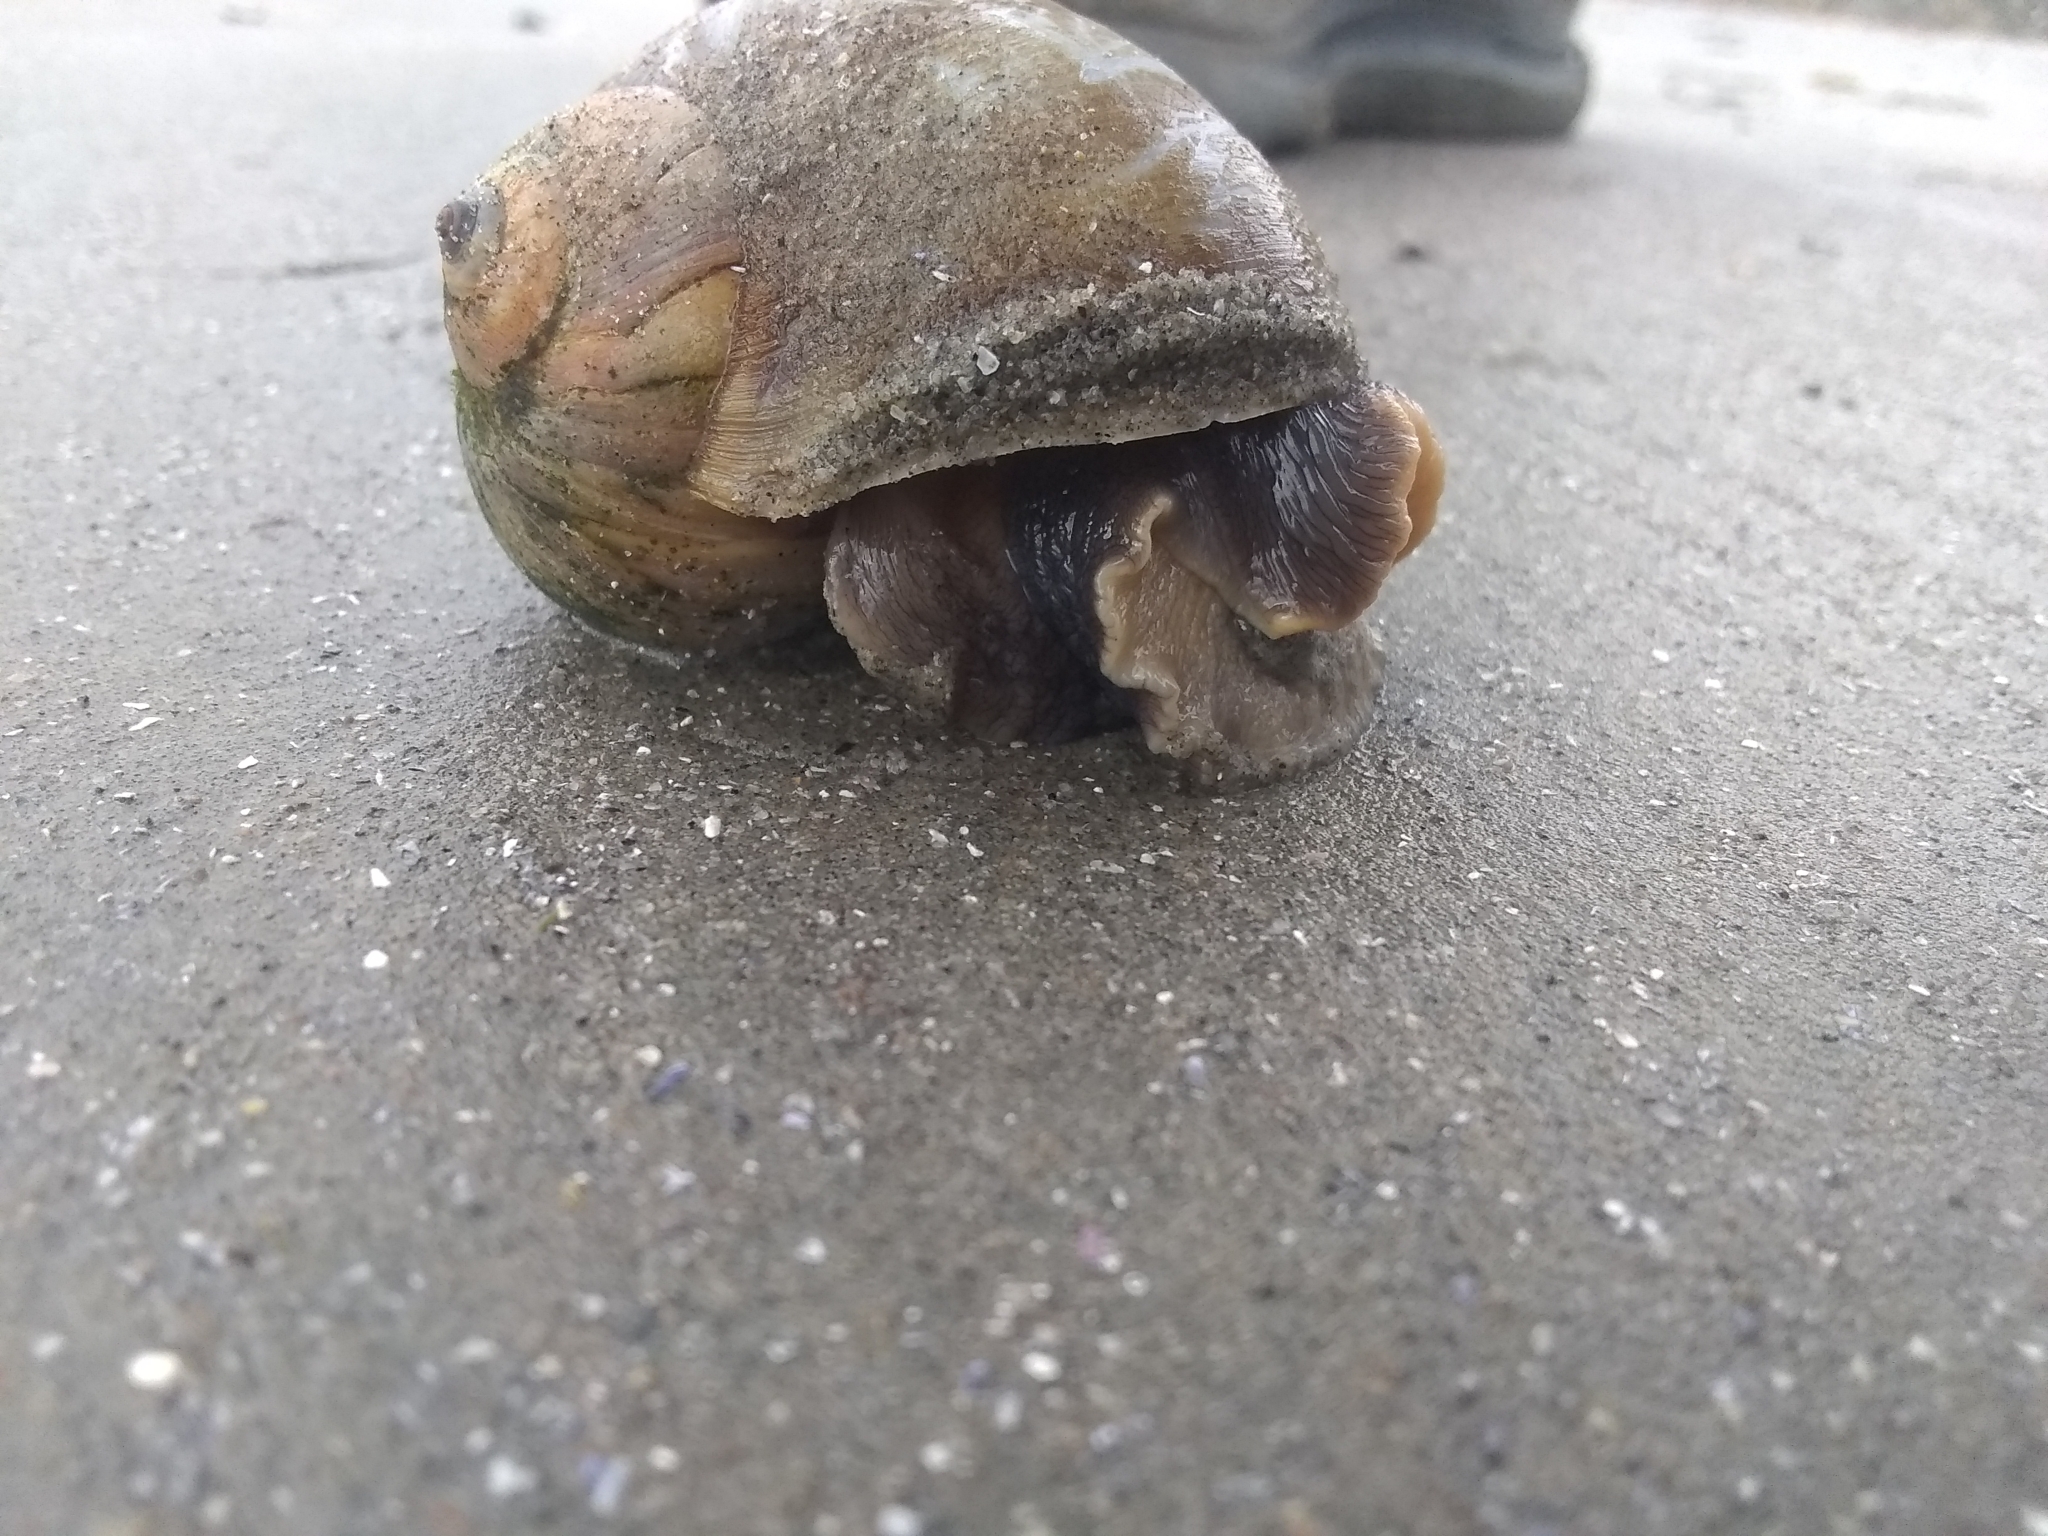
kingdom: Animalia
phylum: Mollusca
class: Gastropoda
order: Littorinimorpha
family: Naticidae
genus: Euspira
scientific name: Euspira heros
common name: Common northern moonsnail
